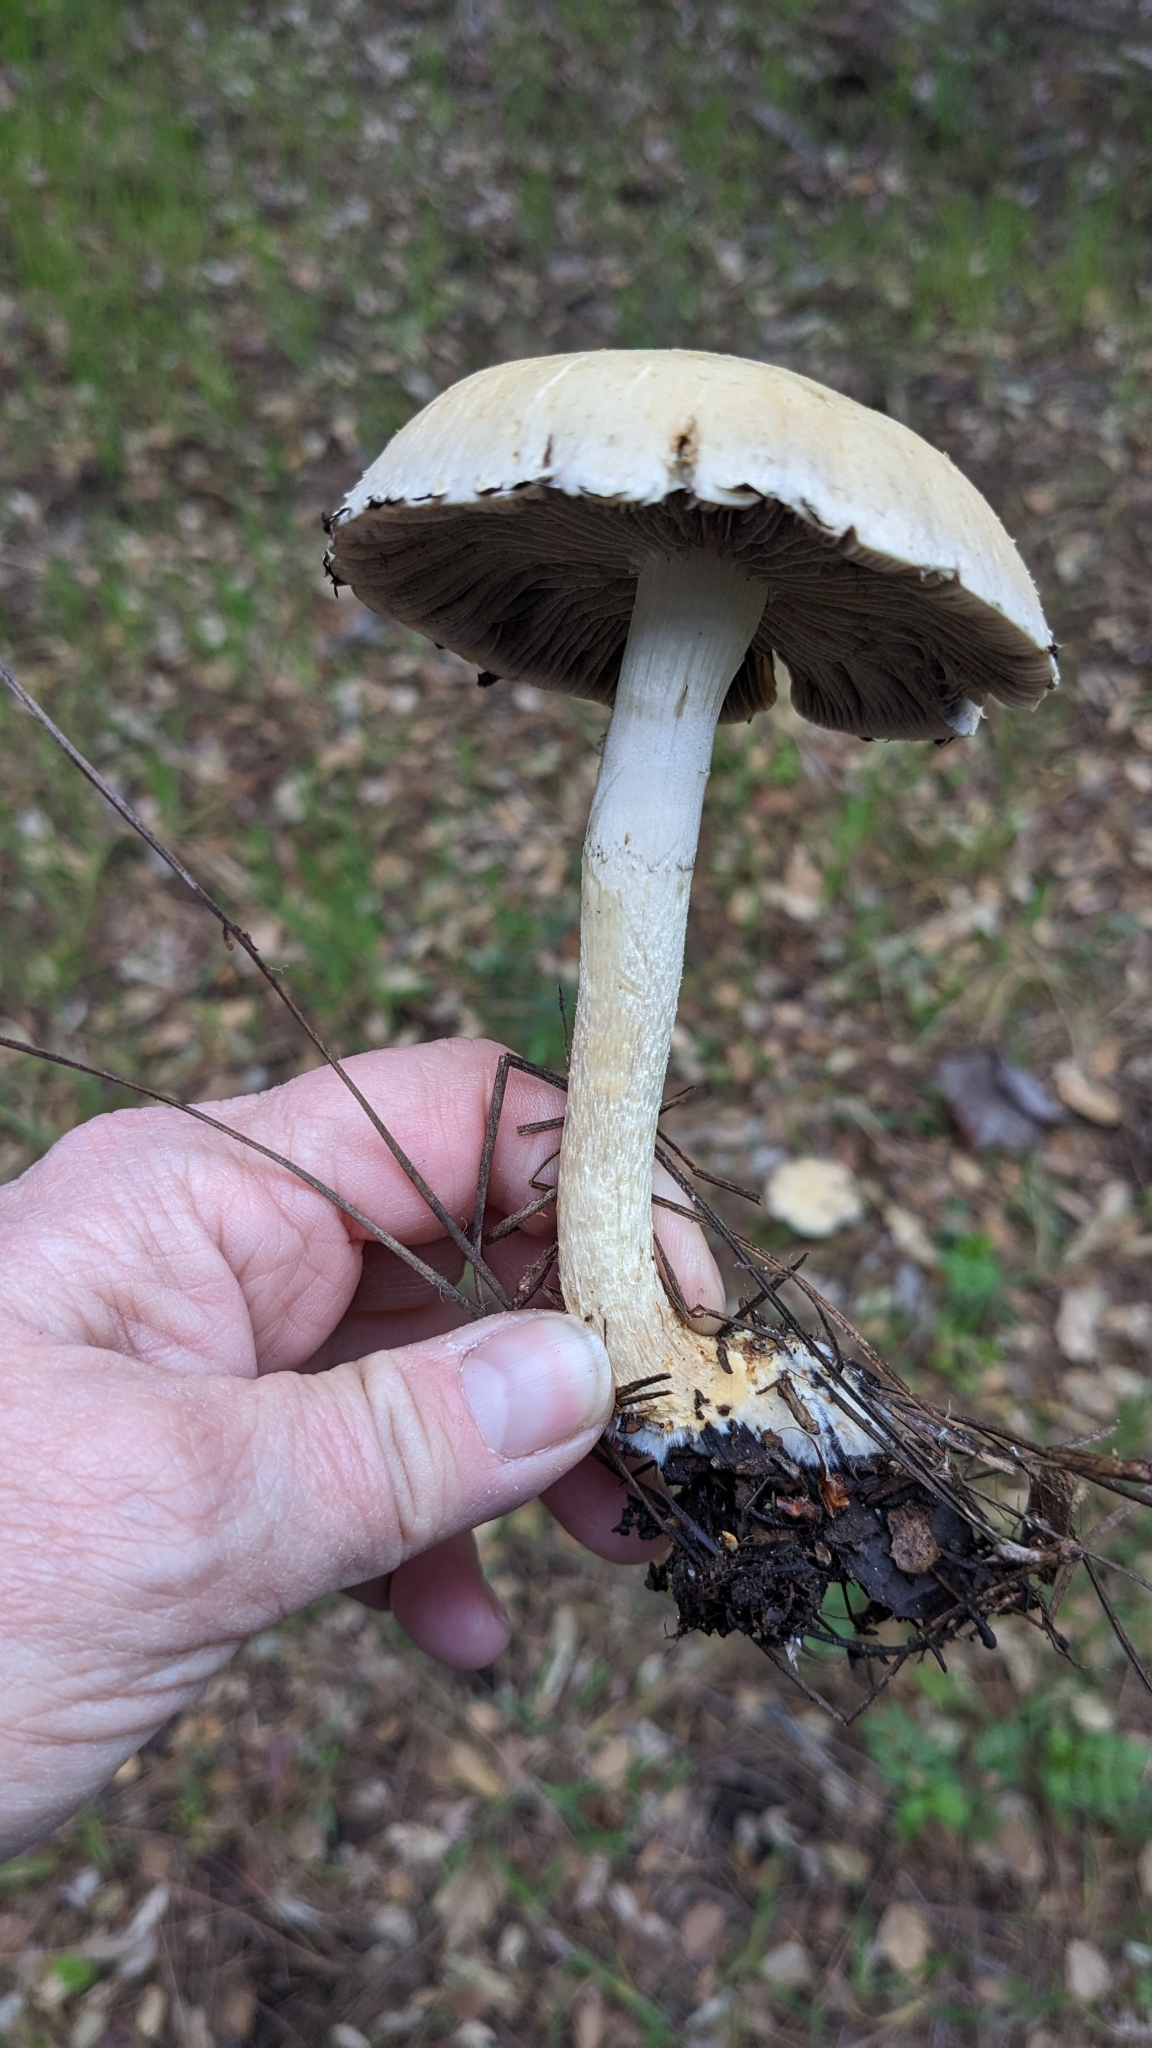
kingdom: Fungi
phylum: Basidiomycota
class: Agaricomycetes
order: Agaricales
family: Strophariaceae
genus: Leratiomyces
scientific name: Leratiomyces percevalii
